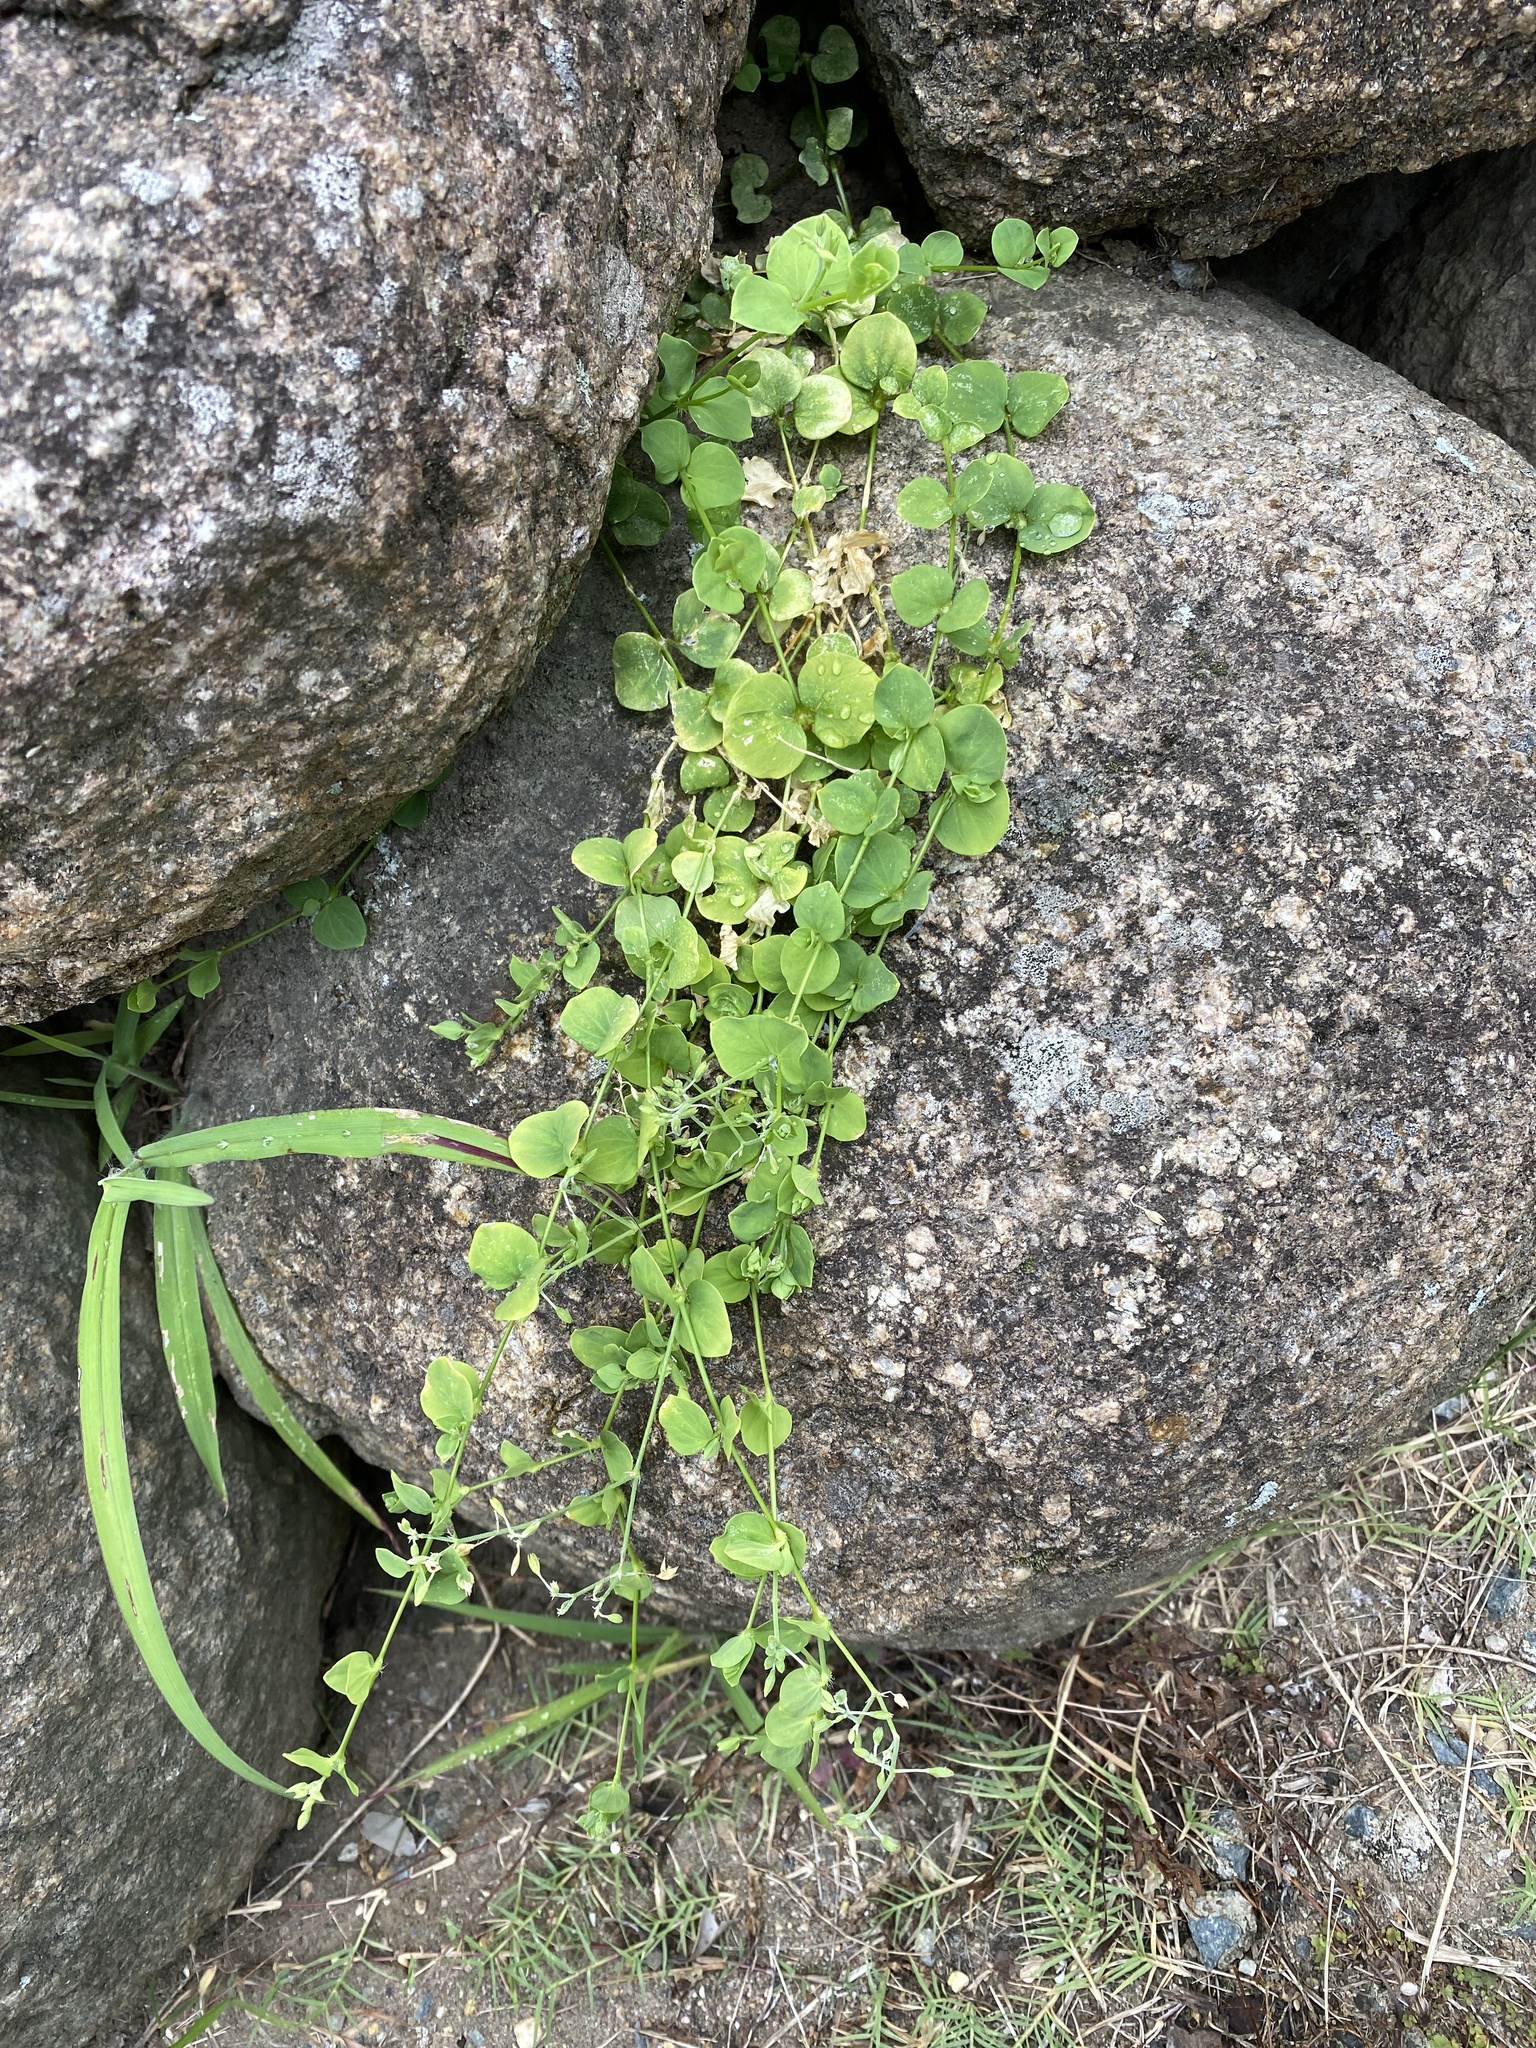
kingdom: Plantae
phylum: Tracheophyta
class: Magnoliopsida
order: Caryophyllales
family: Caryophyllaceae
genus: Drymaria
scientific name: Drymaria cordata
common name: Whitesnow
